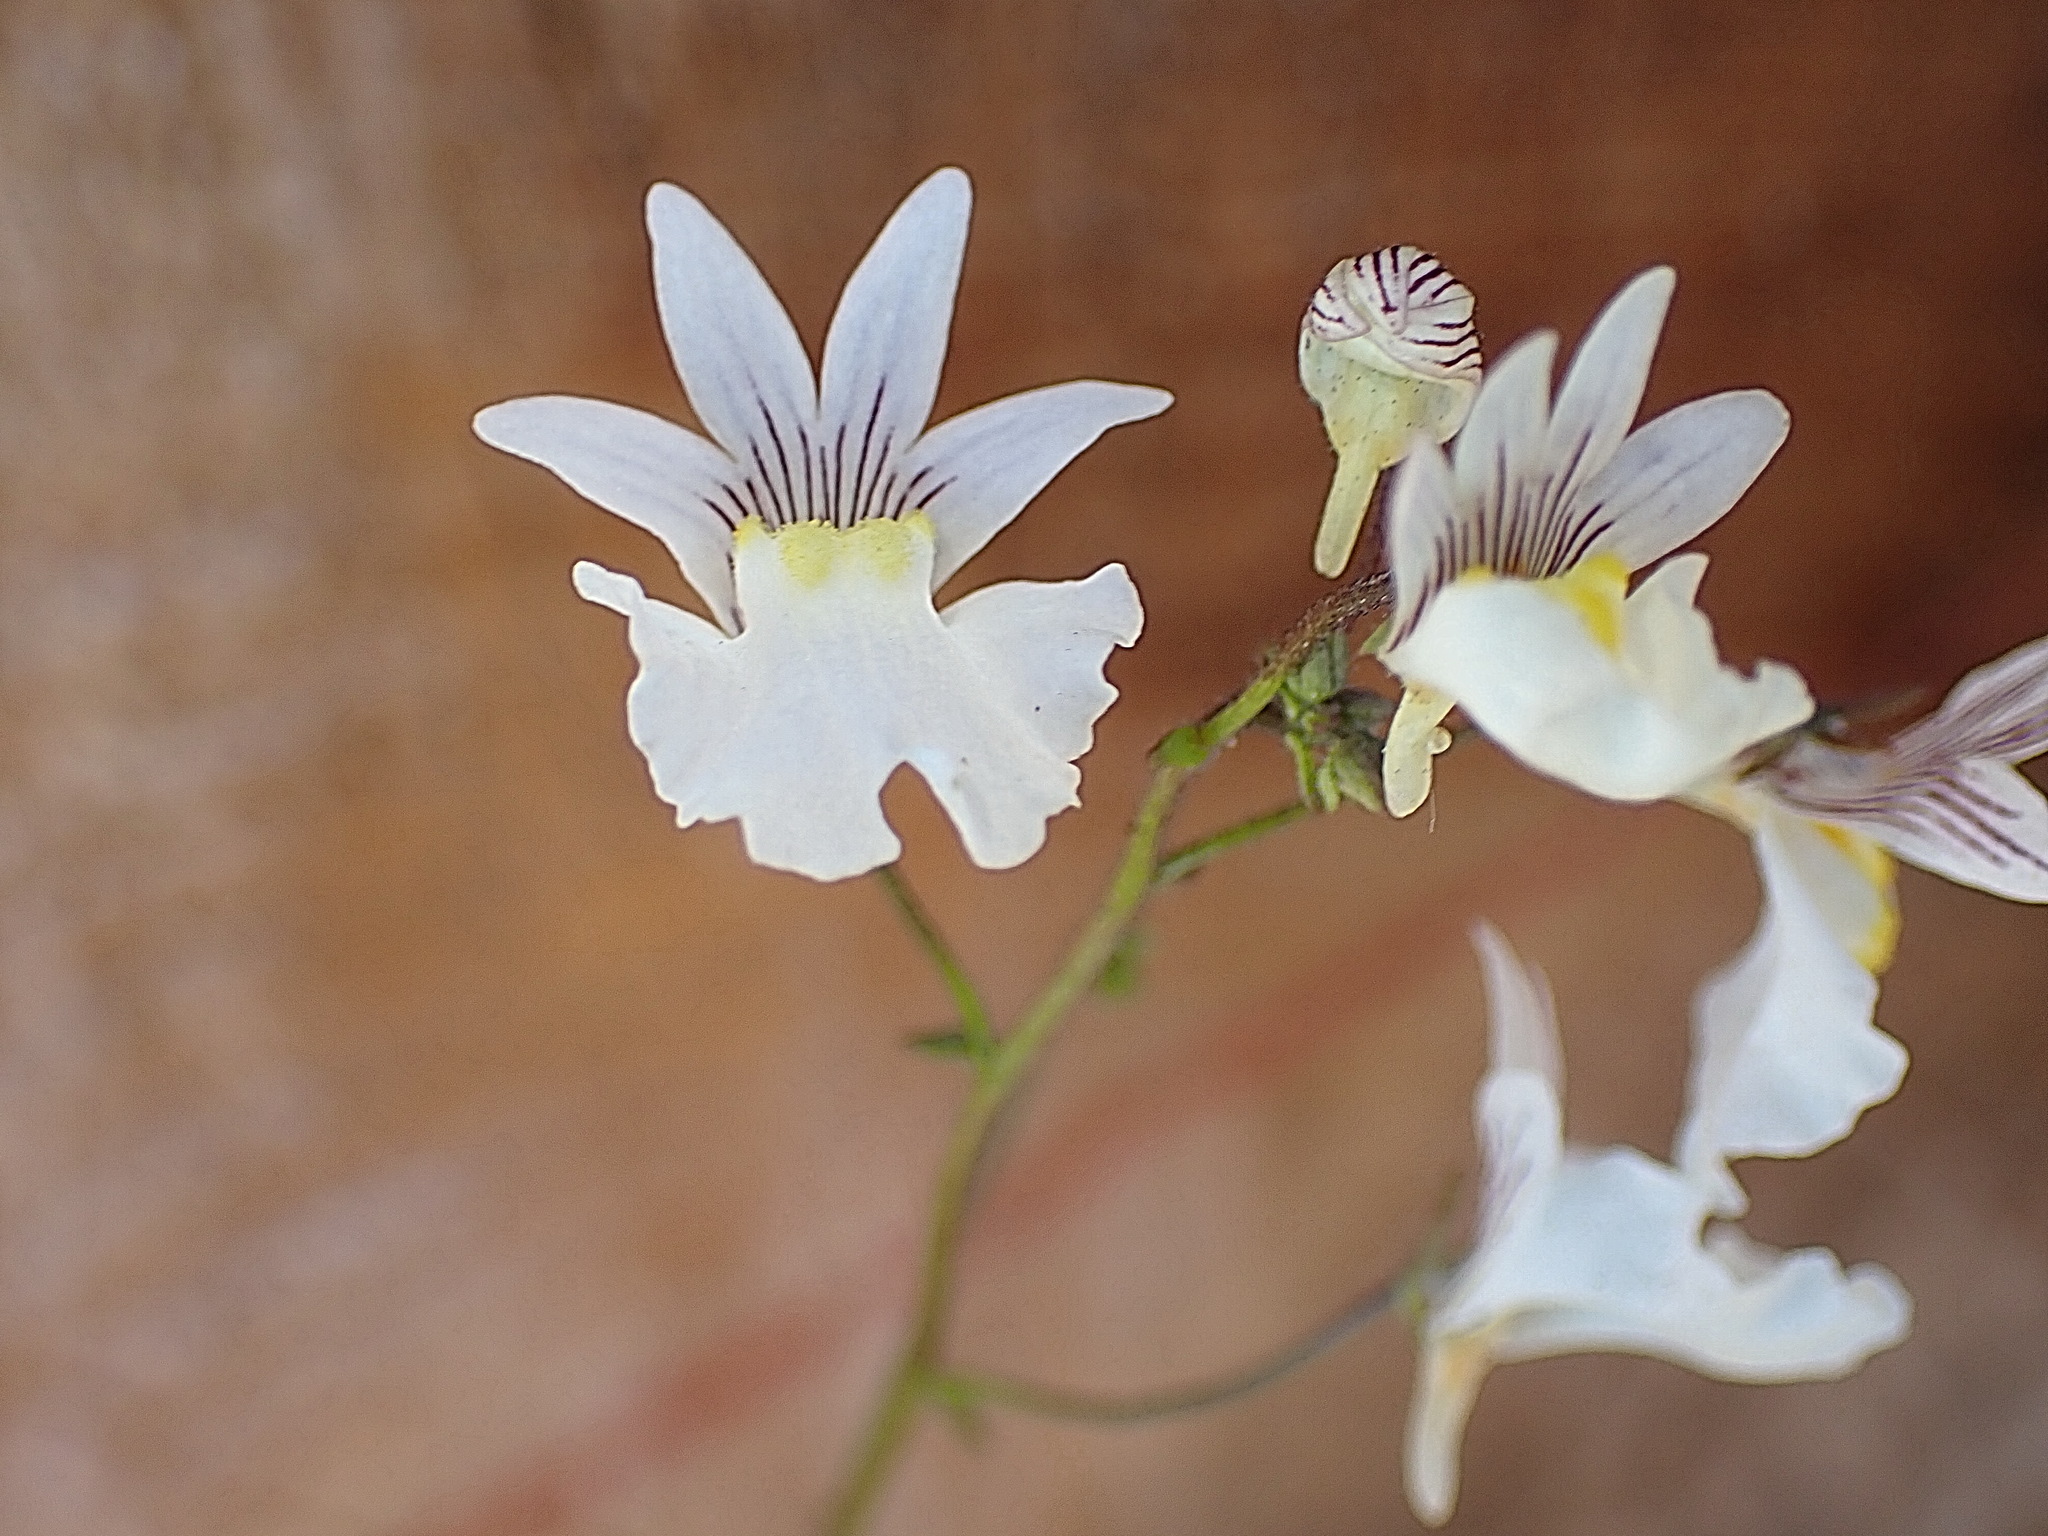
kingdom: Plantae
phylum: Tracheophyta
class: Magnoliopsida
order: Lamiales
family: Scrophulariaceae
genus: Nemesia
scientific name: Nemesia bicornis
